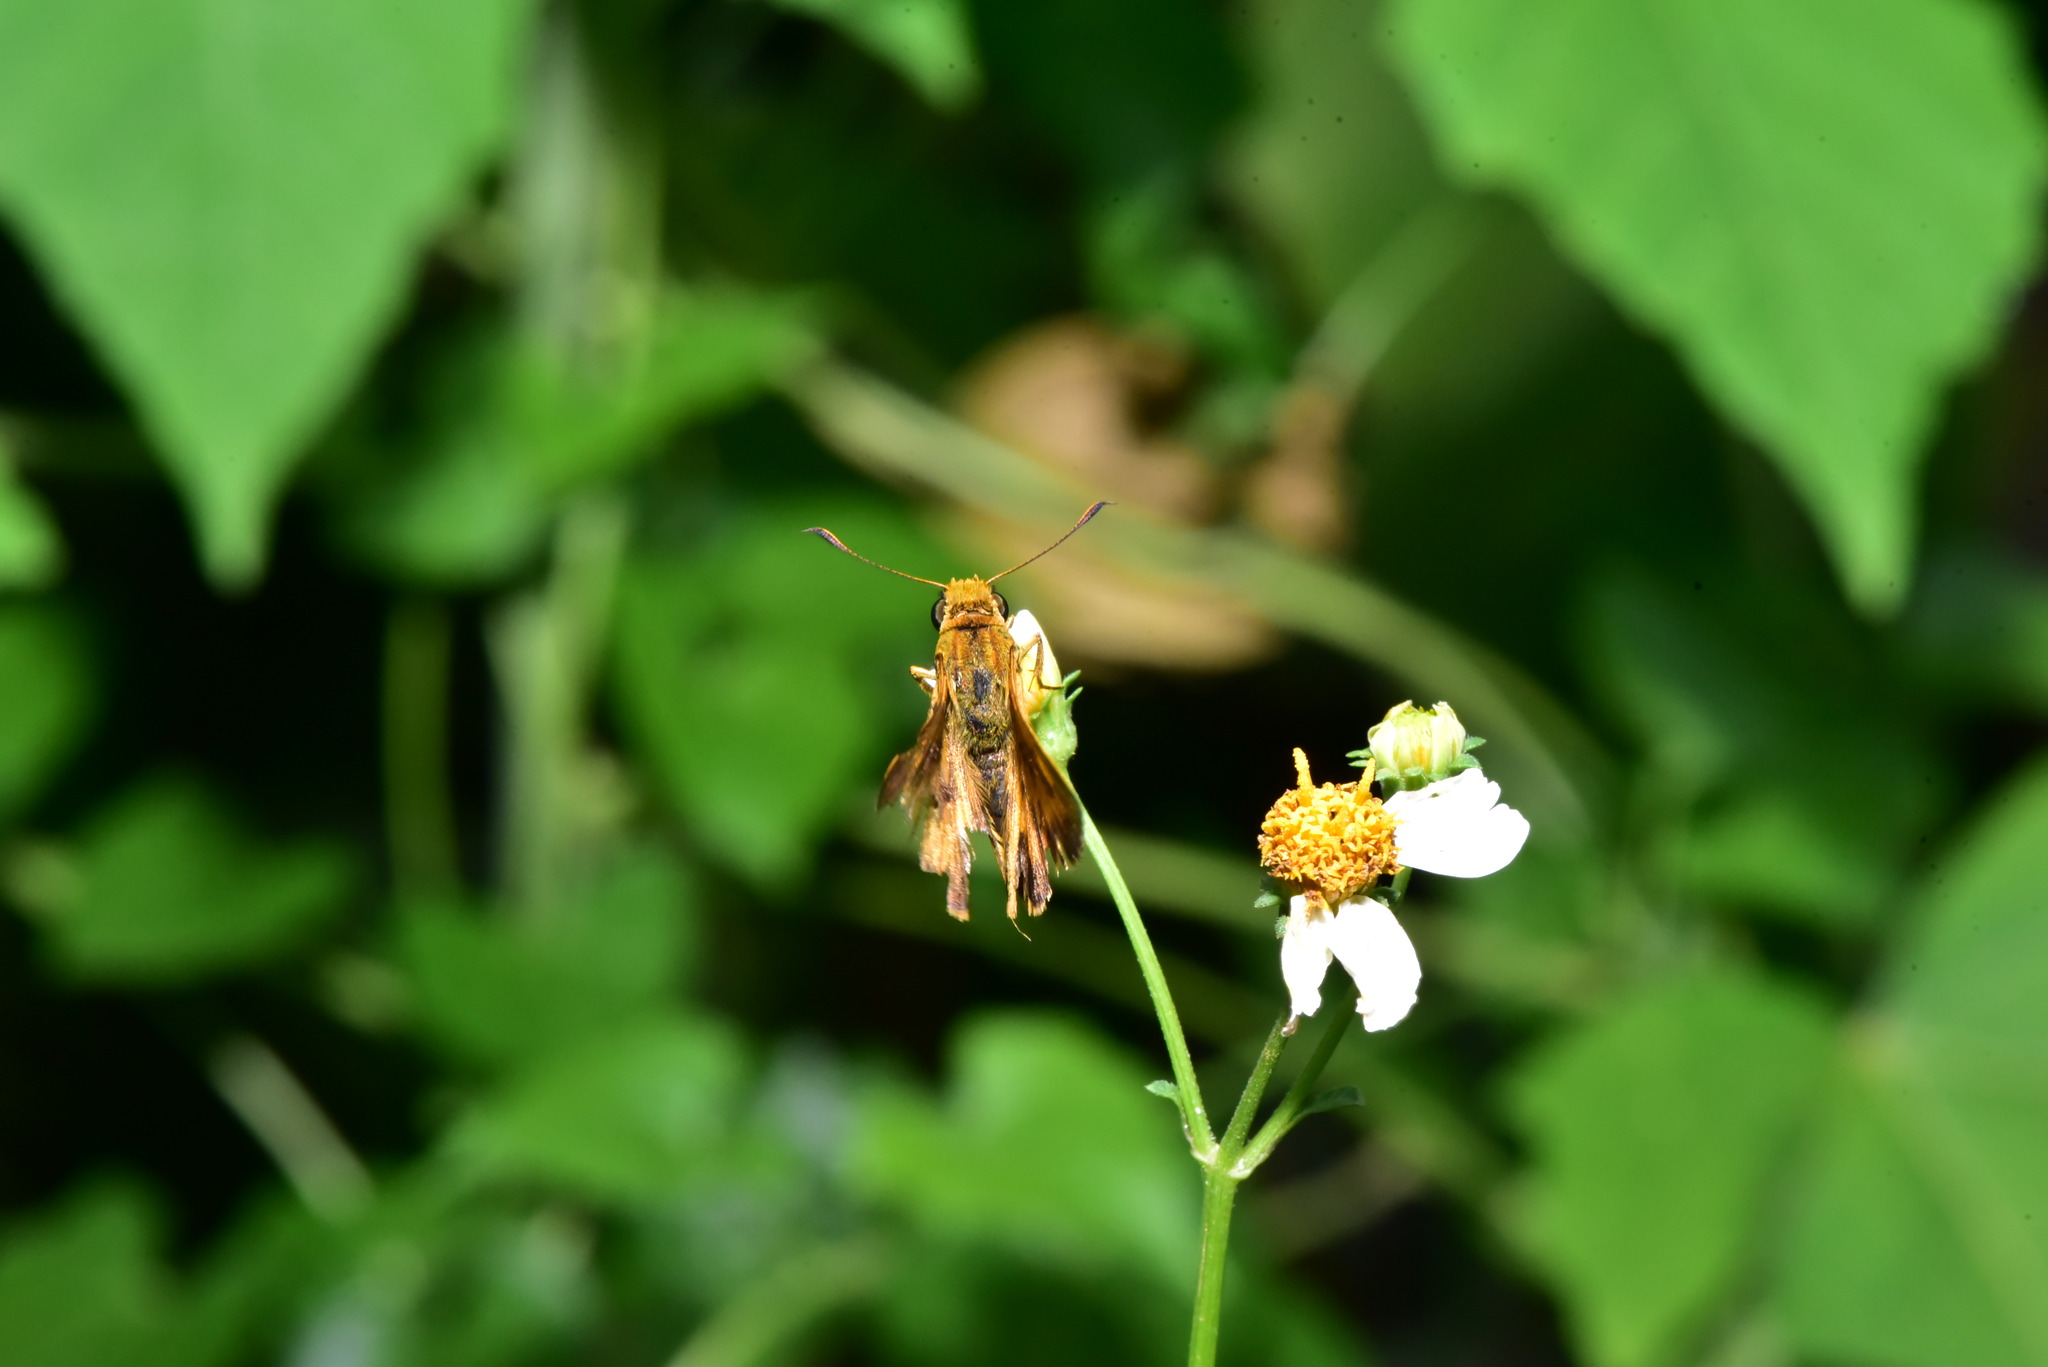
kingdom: Animalia
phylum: Arthropoda
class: Insecta
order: Lepidoptera
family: Hesperiidae
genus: Telicota
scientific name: Telicota bambusae
